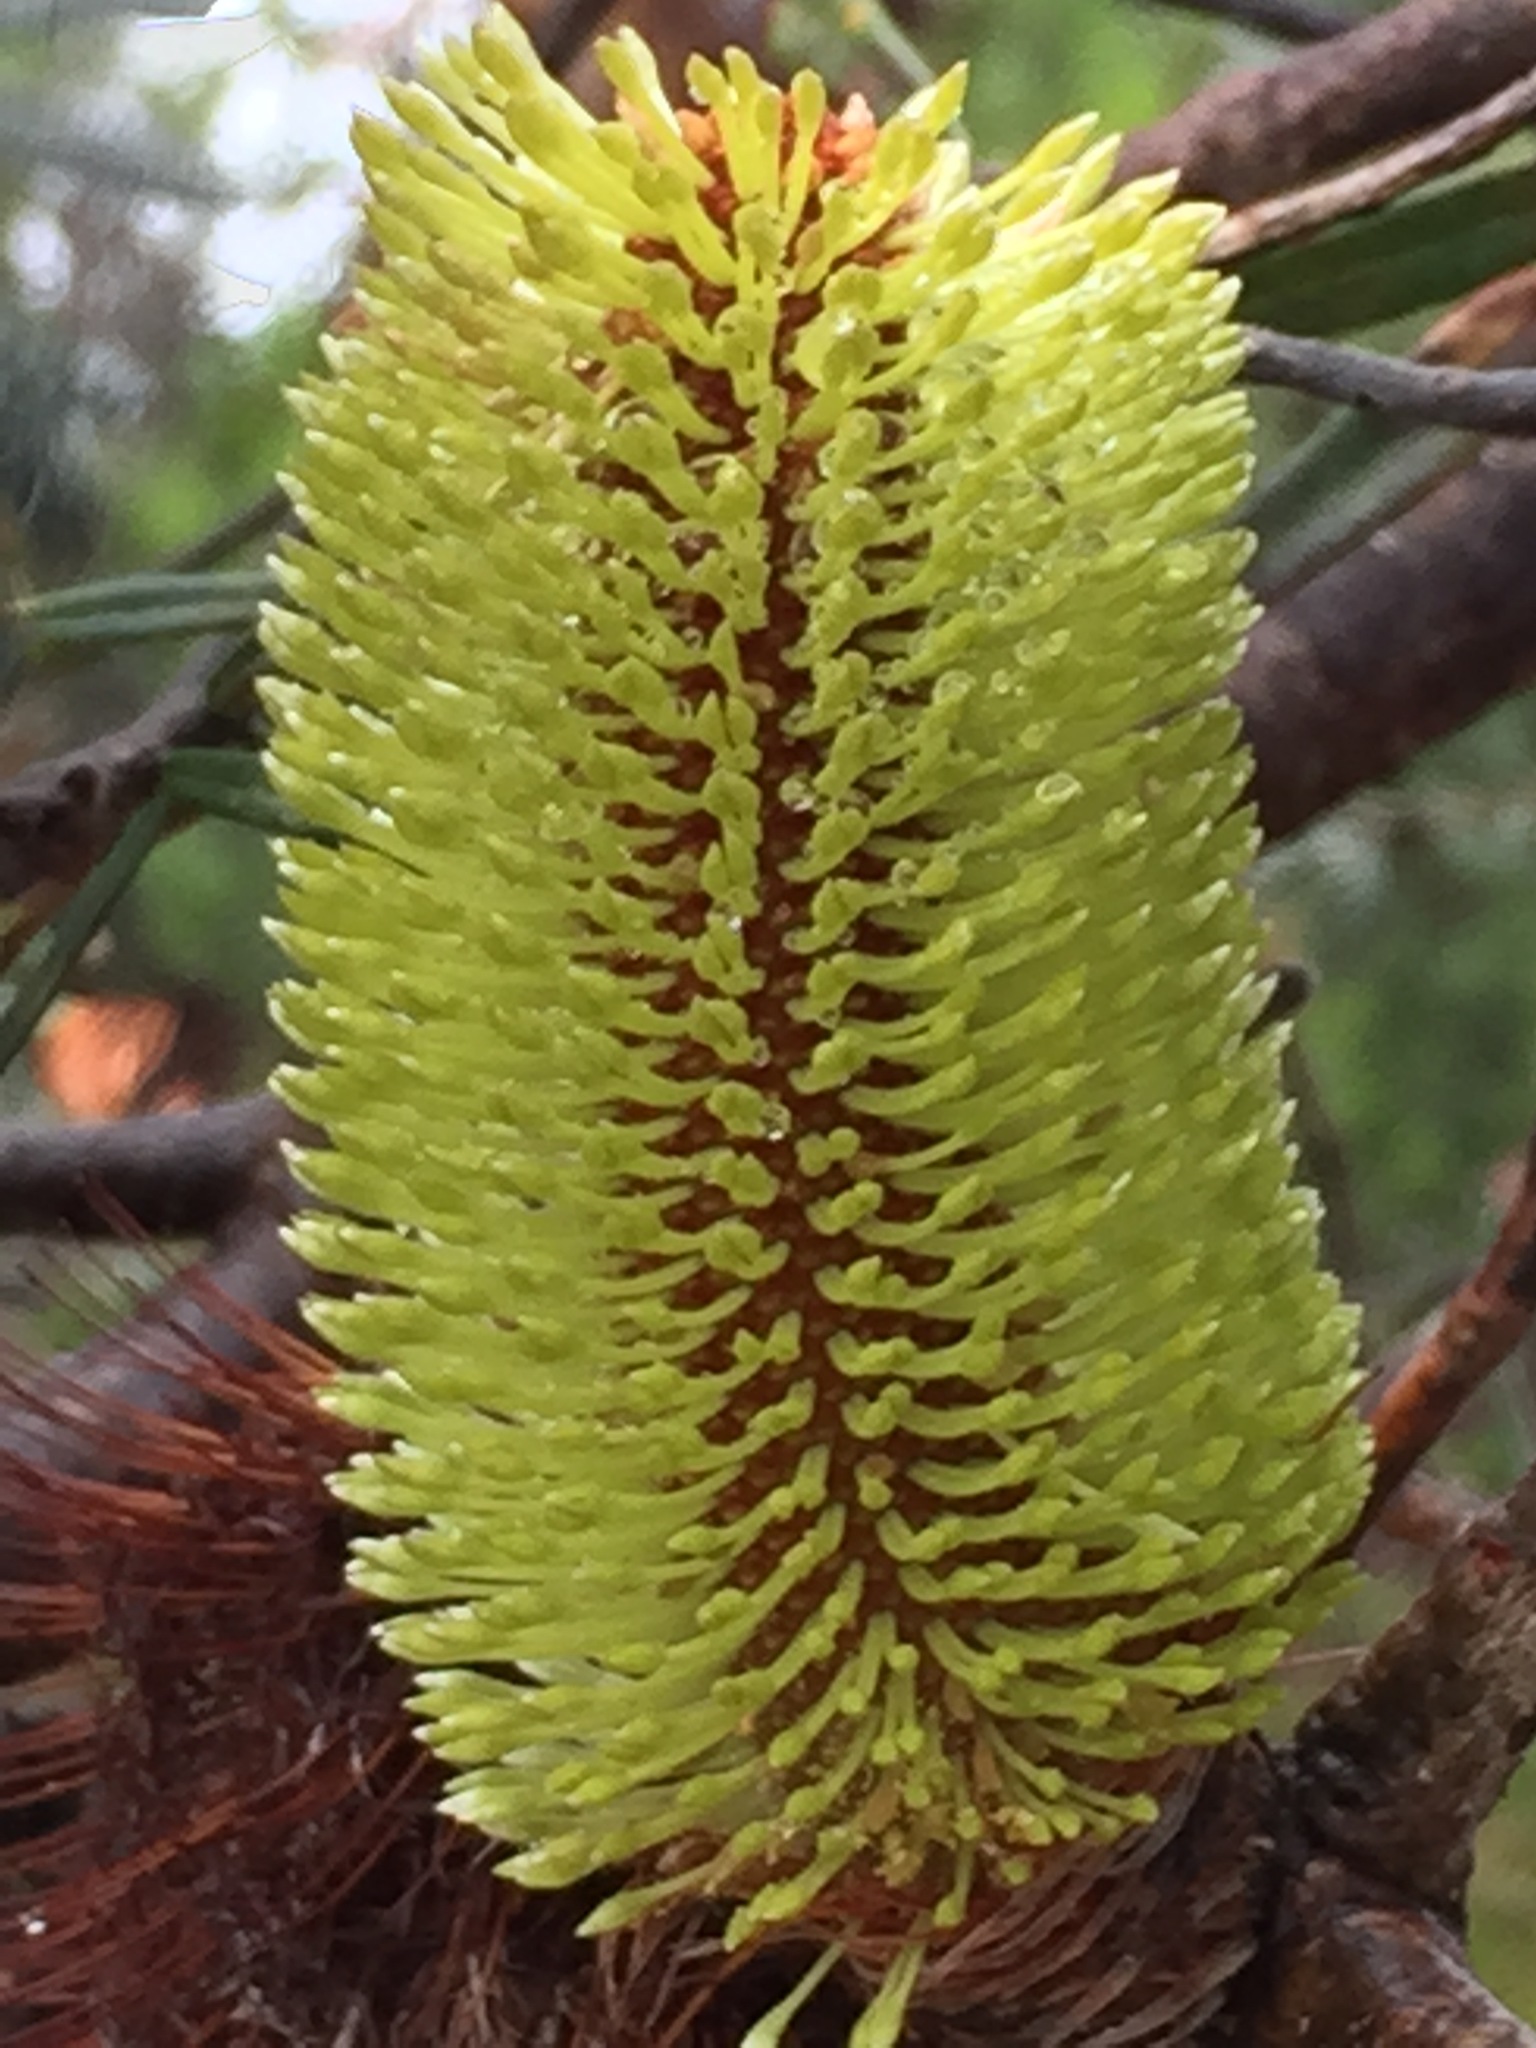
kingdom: Plantae
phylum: Tracheophyta
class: Magnoliopsida
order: Proteales
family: Proteaceae
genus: Banksia
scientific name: Banksia marginata
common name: Silver banksia
